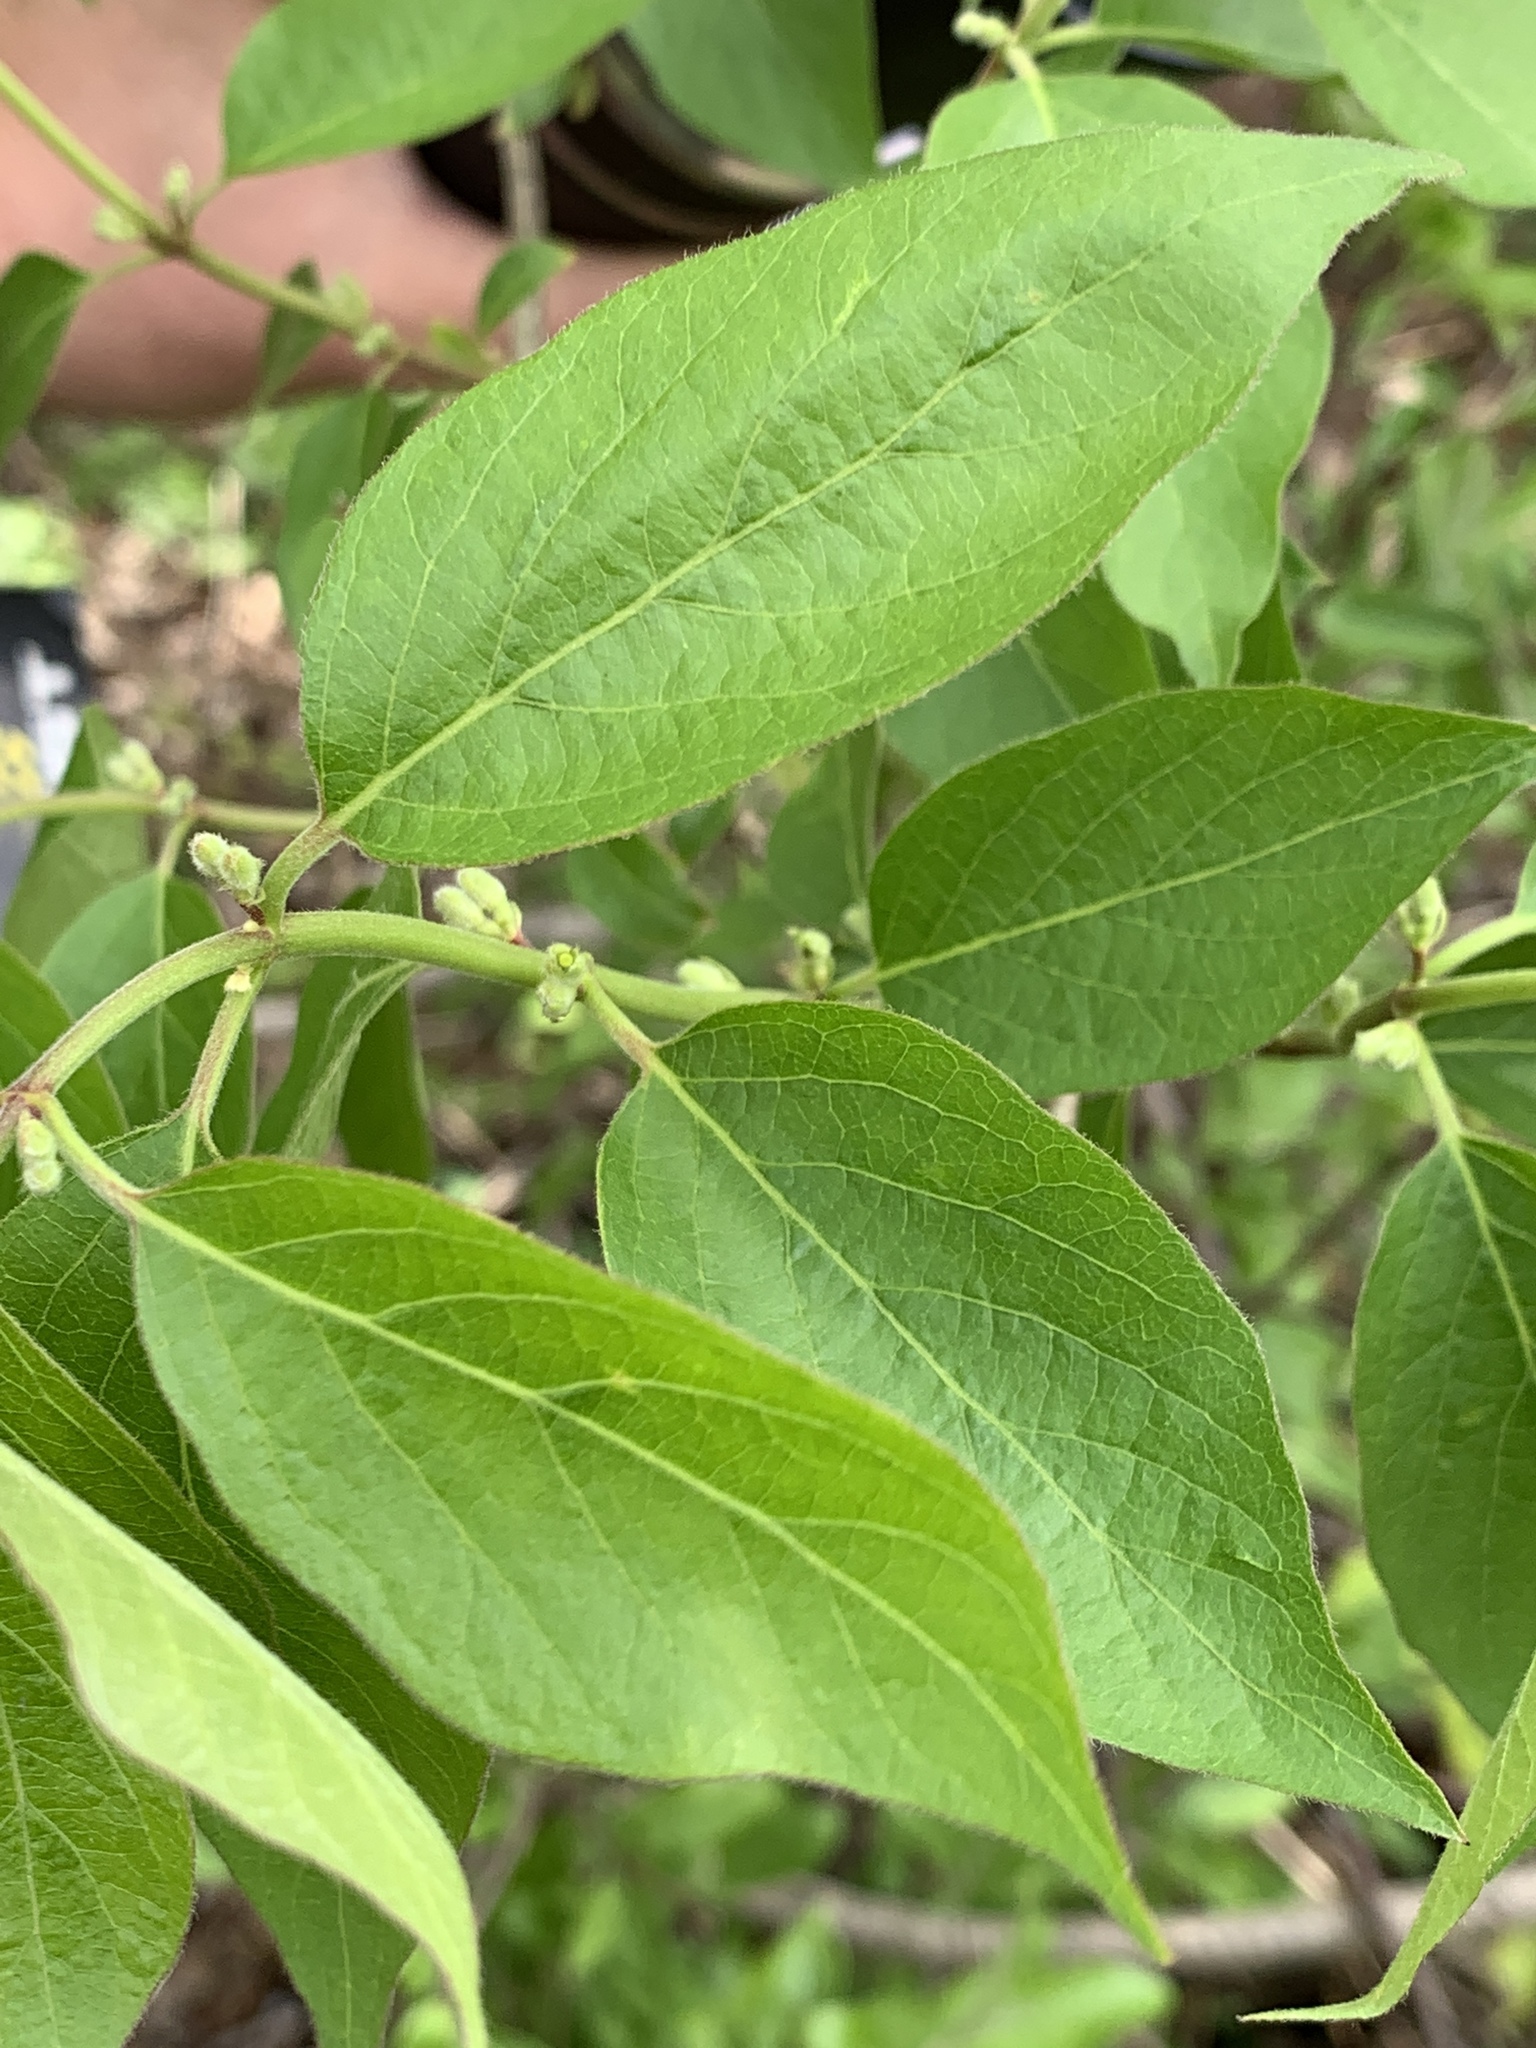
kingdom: Plantae
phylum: Tracheophyta
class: Magnoliopsida
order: Dipsacales
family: Caprifoliaceae
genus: Lonicera
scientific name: Lonicera maackii
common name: Amur honeysuckle
